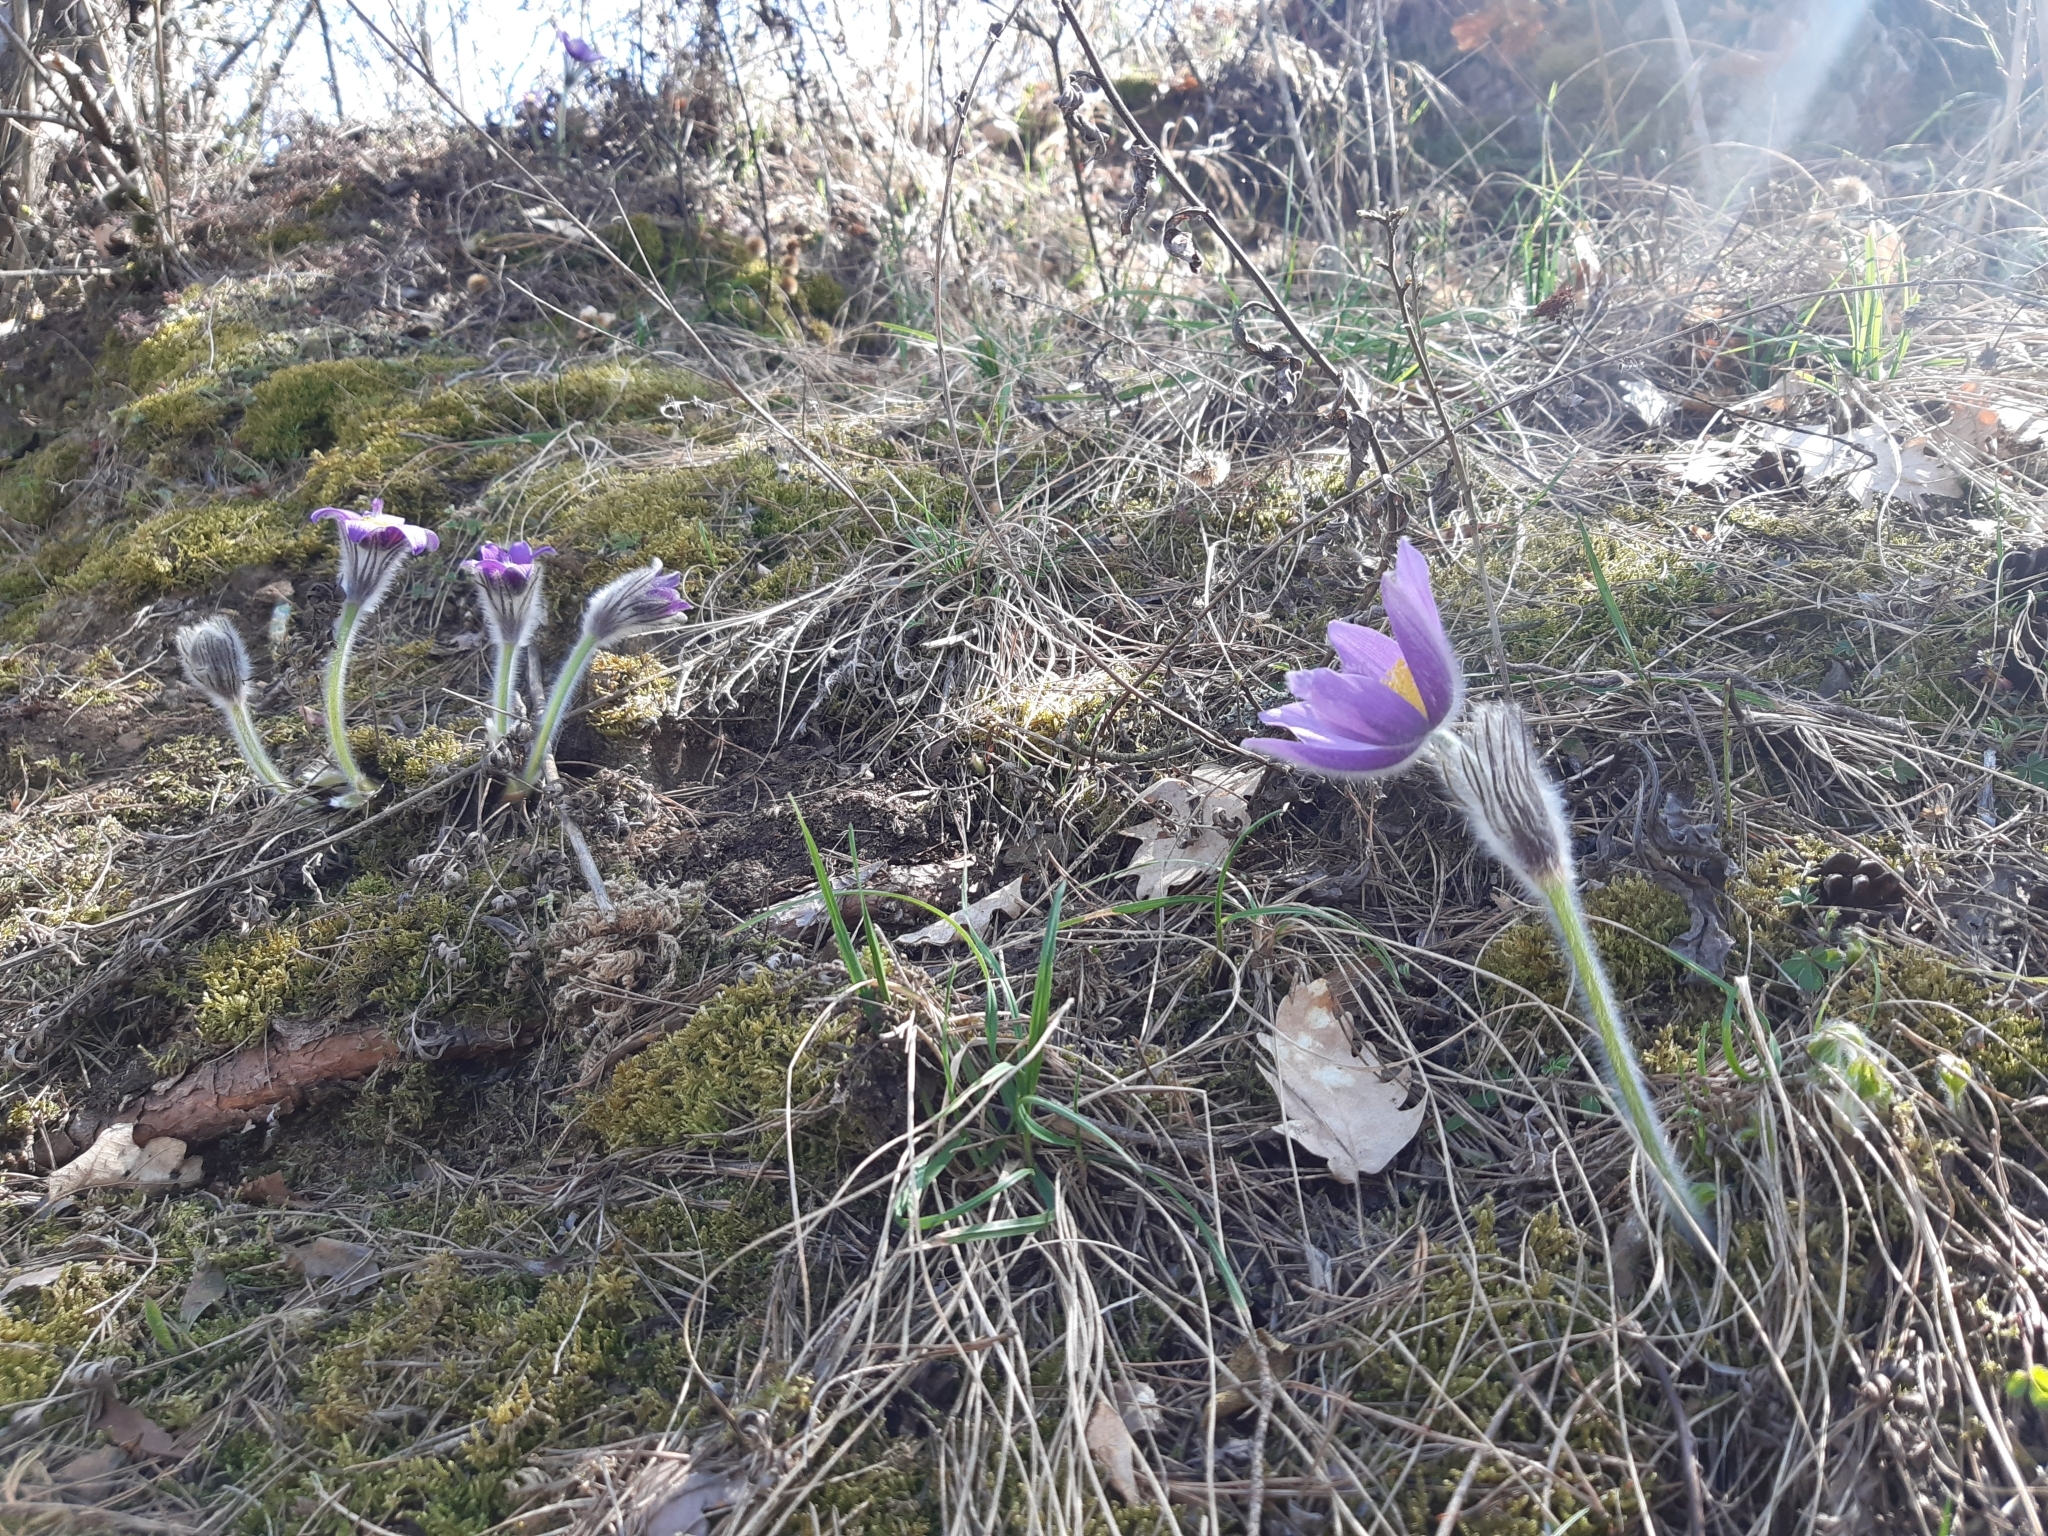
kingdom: Plantae
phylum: Tracheophyta
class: Magnoliopsida
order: Ranunculales
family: Ranunculaceae
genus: Pulsatilla
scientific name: Pulsatilla grandis
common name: Greater pasque flower
